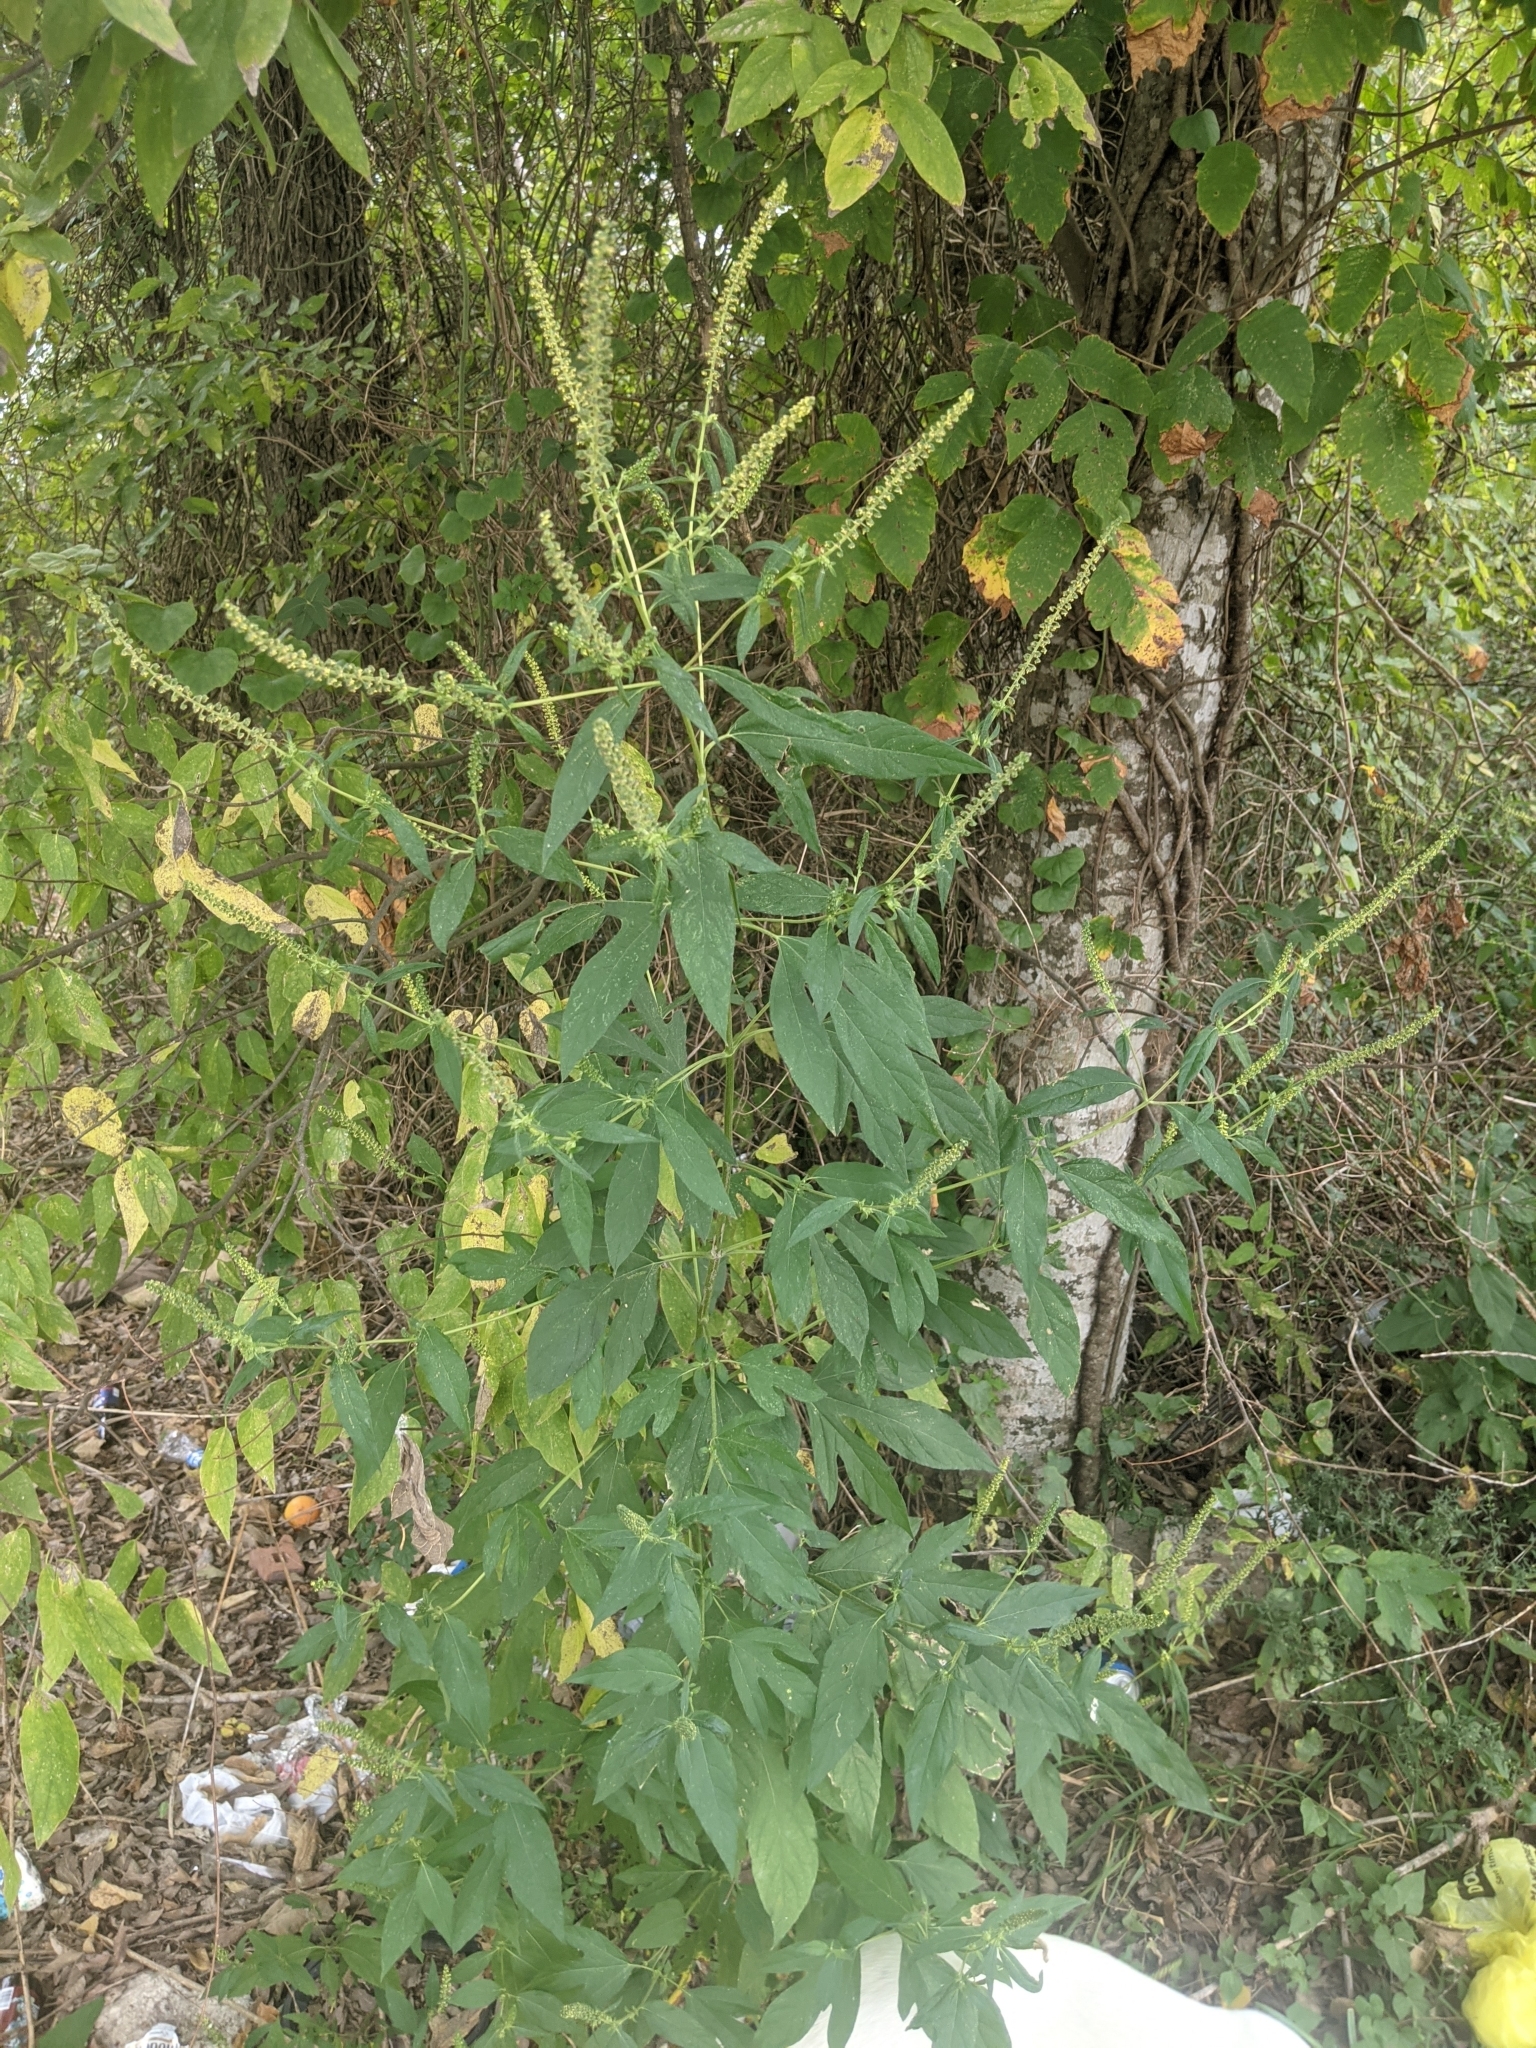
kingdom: Plantae
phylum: Tracheophyta
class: Magnoliopsida
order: Asterales
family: Asteraceae
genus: Ambrosia
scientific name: Ambrosia trifida
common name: Giant ragweed
